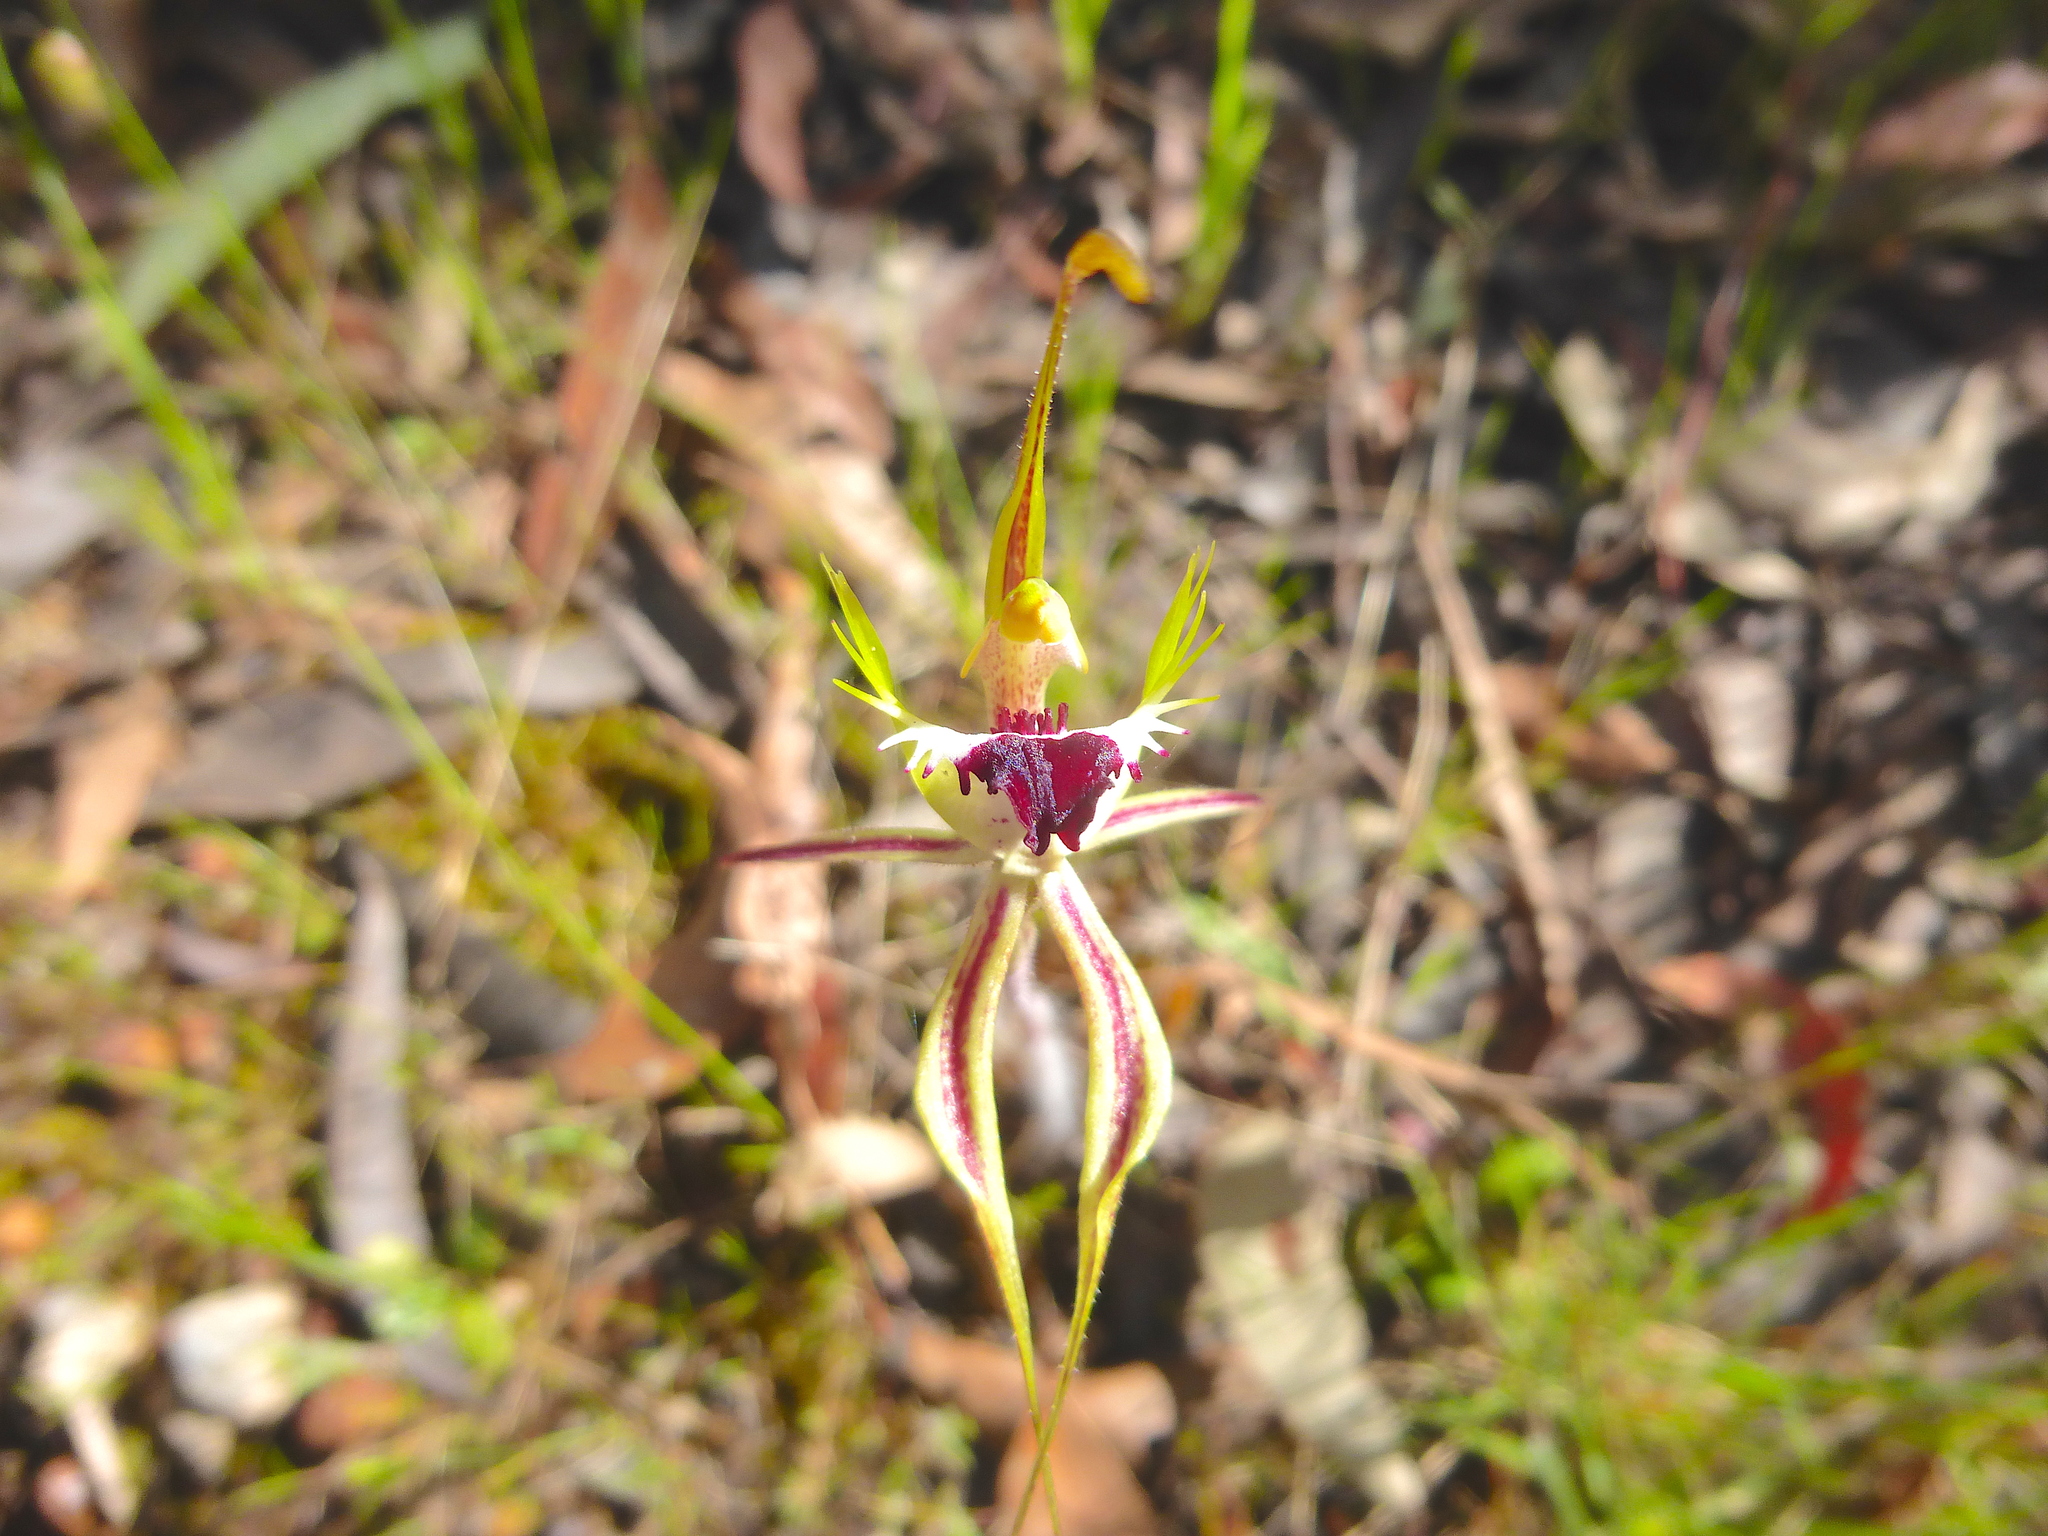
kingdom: Plantae
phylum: Tracheophyta
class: Liliopsida
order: Asparagales
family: Orchidaceae
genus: Caladenia
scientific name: Caladenia tentaculata
